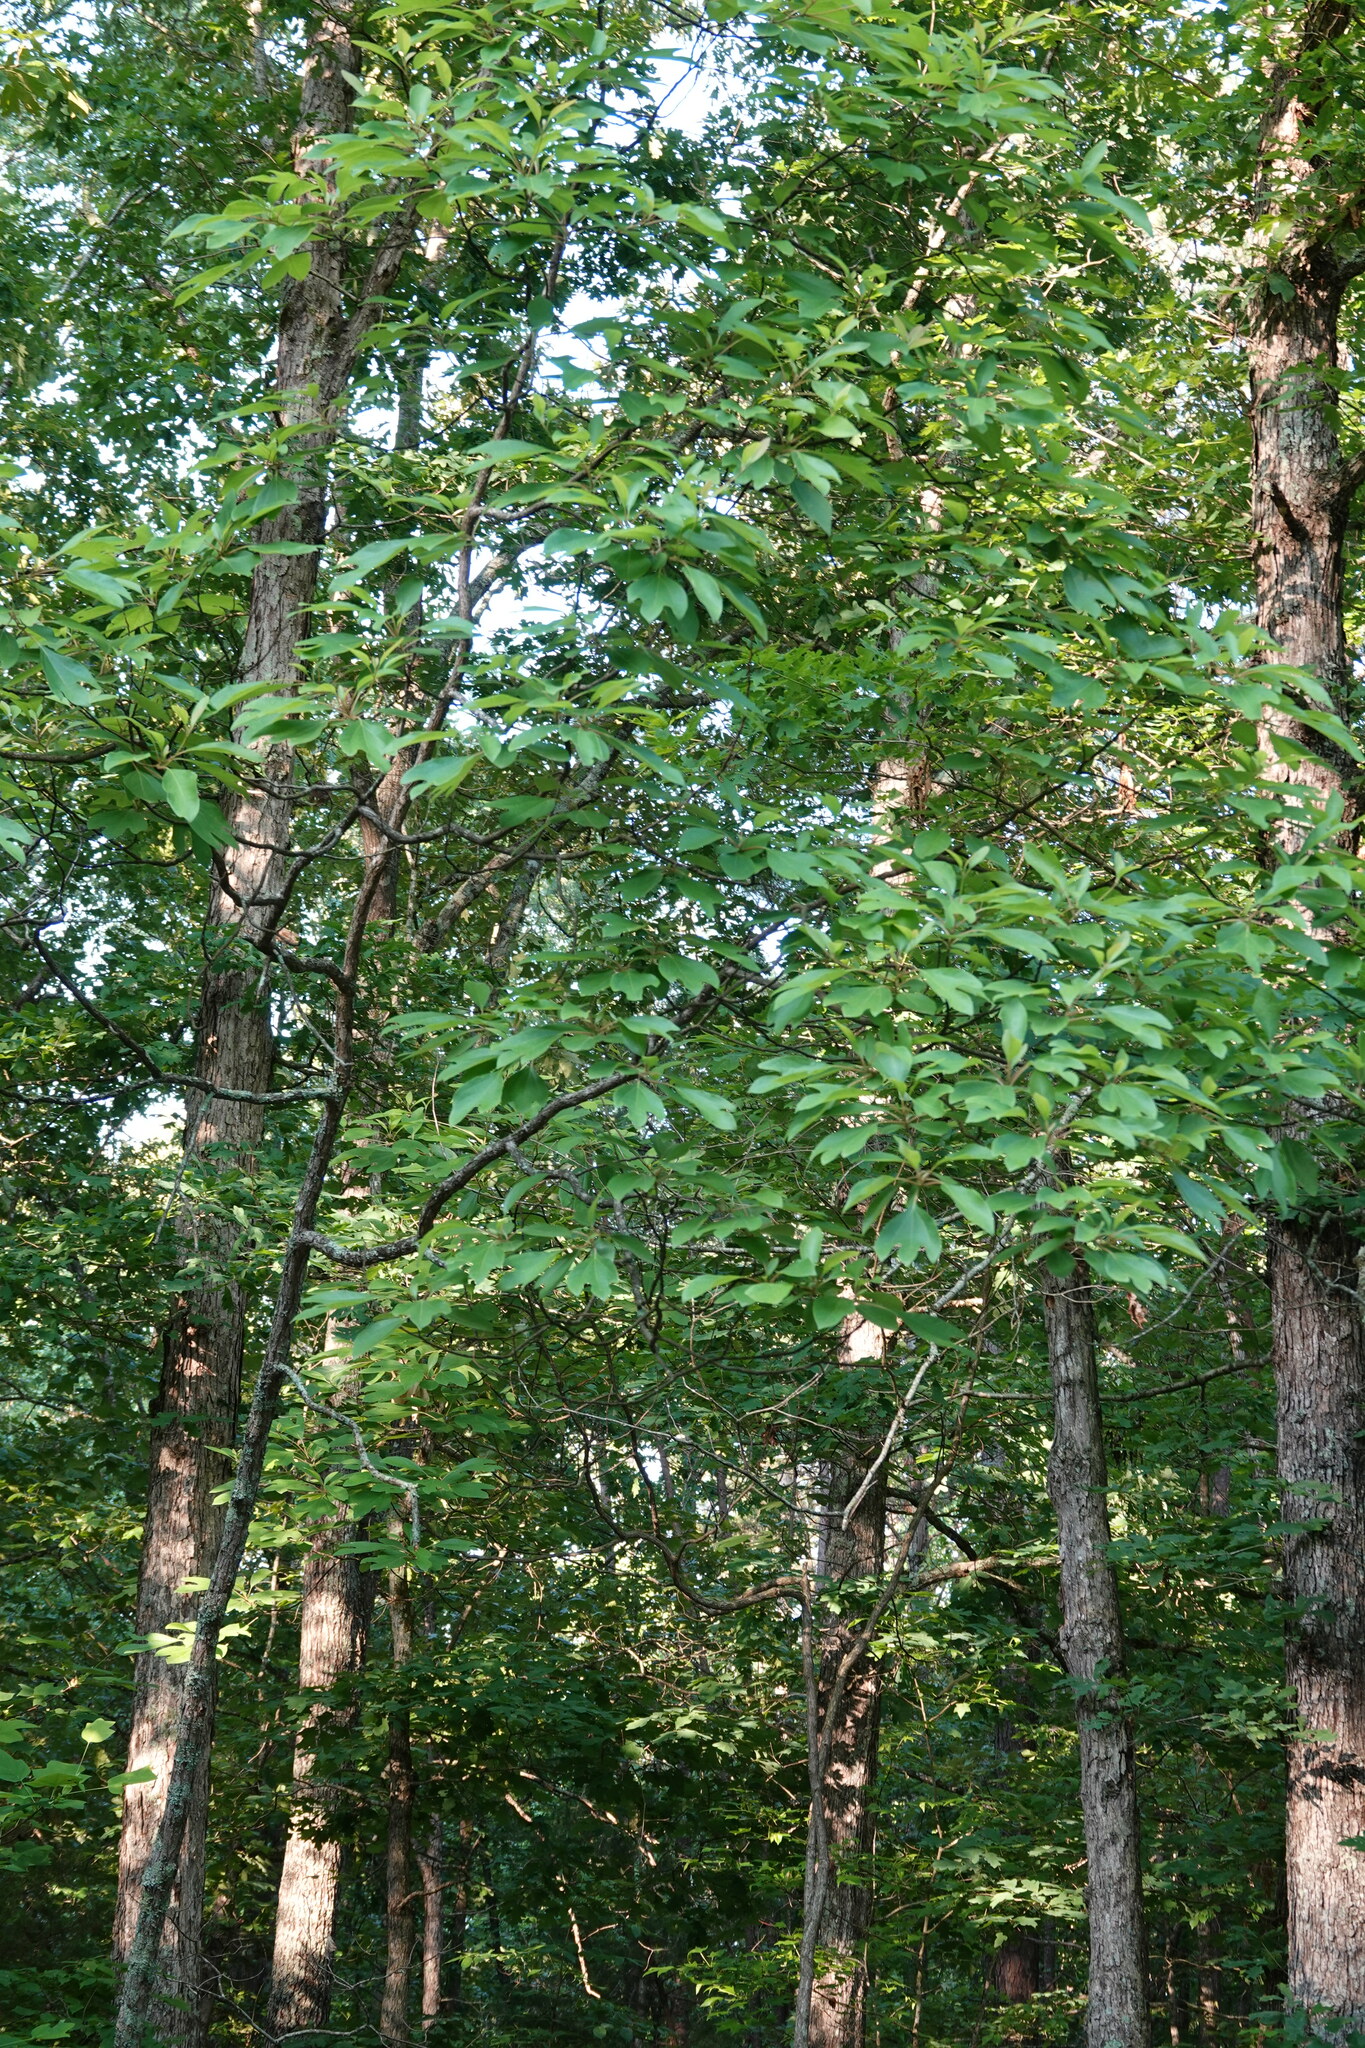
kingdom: Plantae
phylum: Tracheophyta
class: Magnoliopsida
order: Laurales
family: Lauraceae
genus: Sassafras
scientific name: Sassafras albidum
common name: Sassafras
